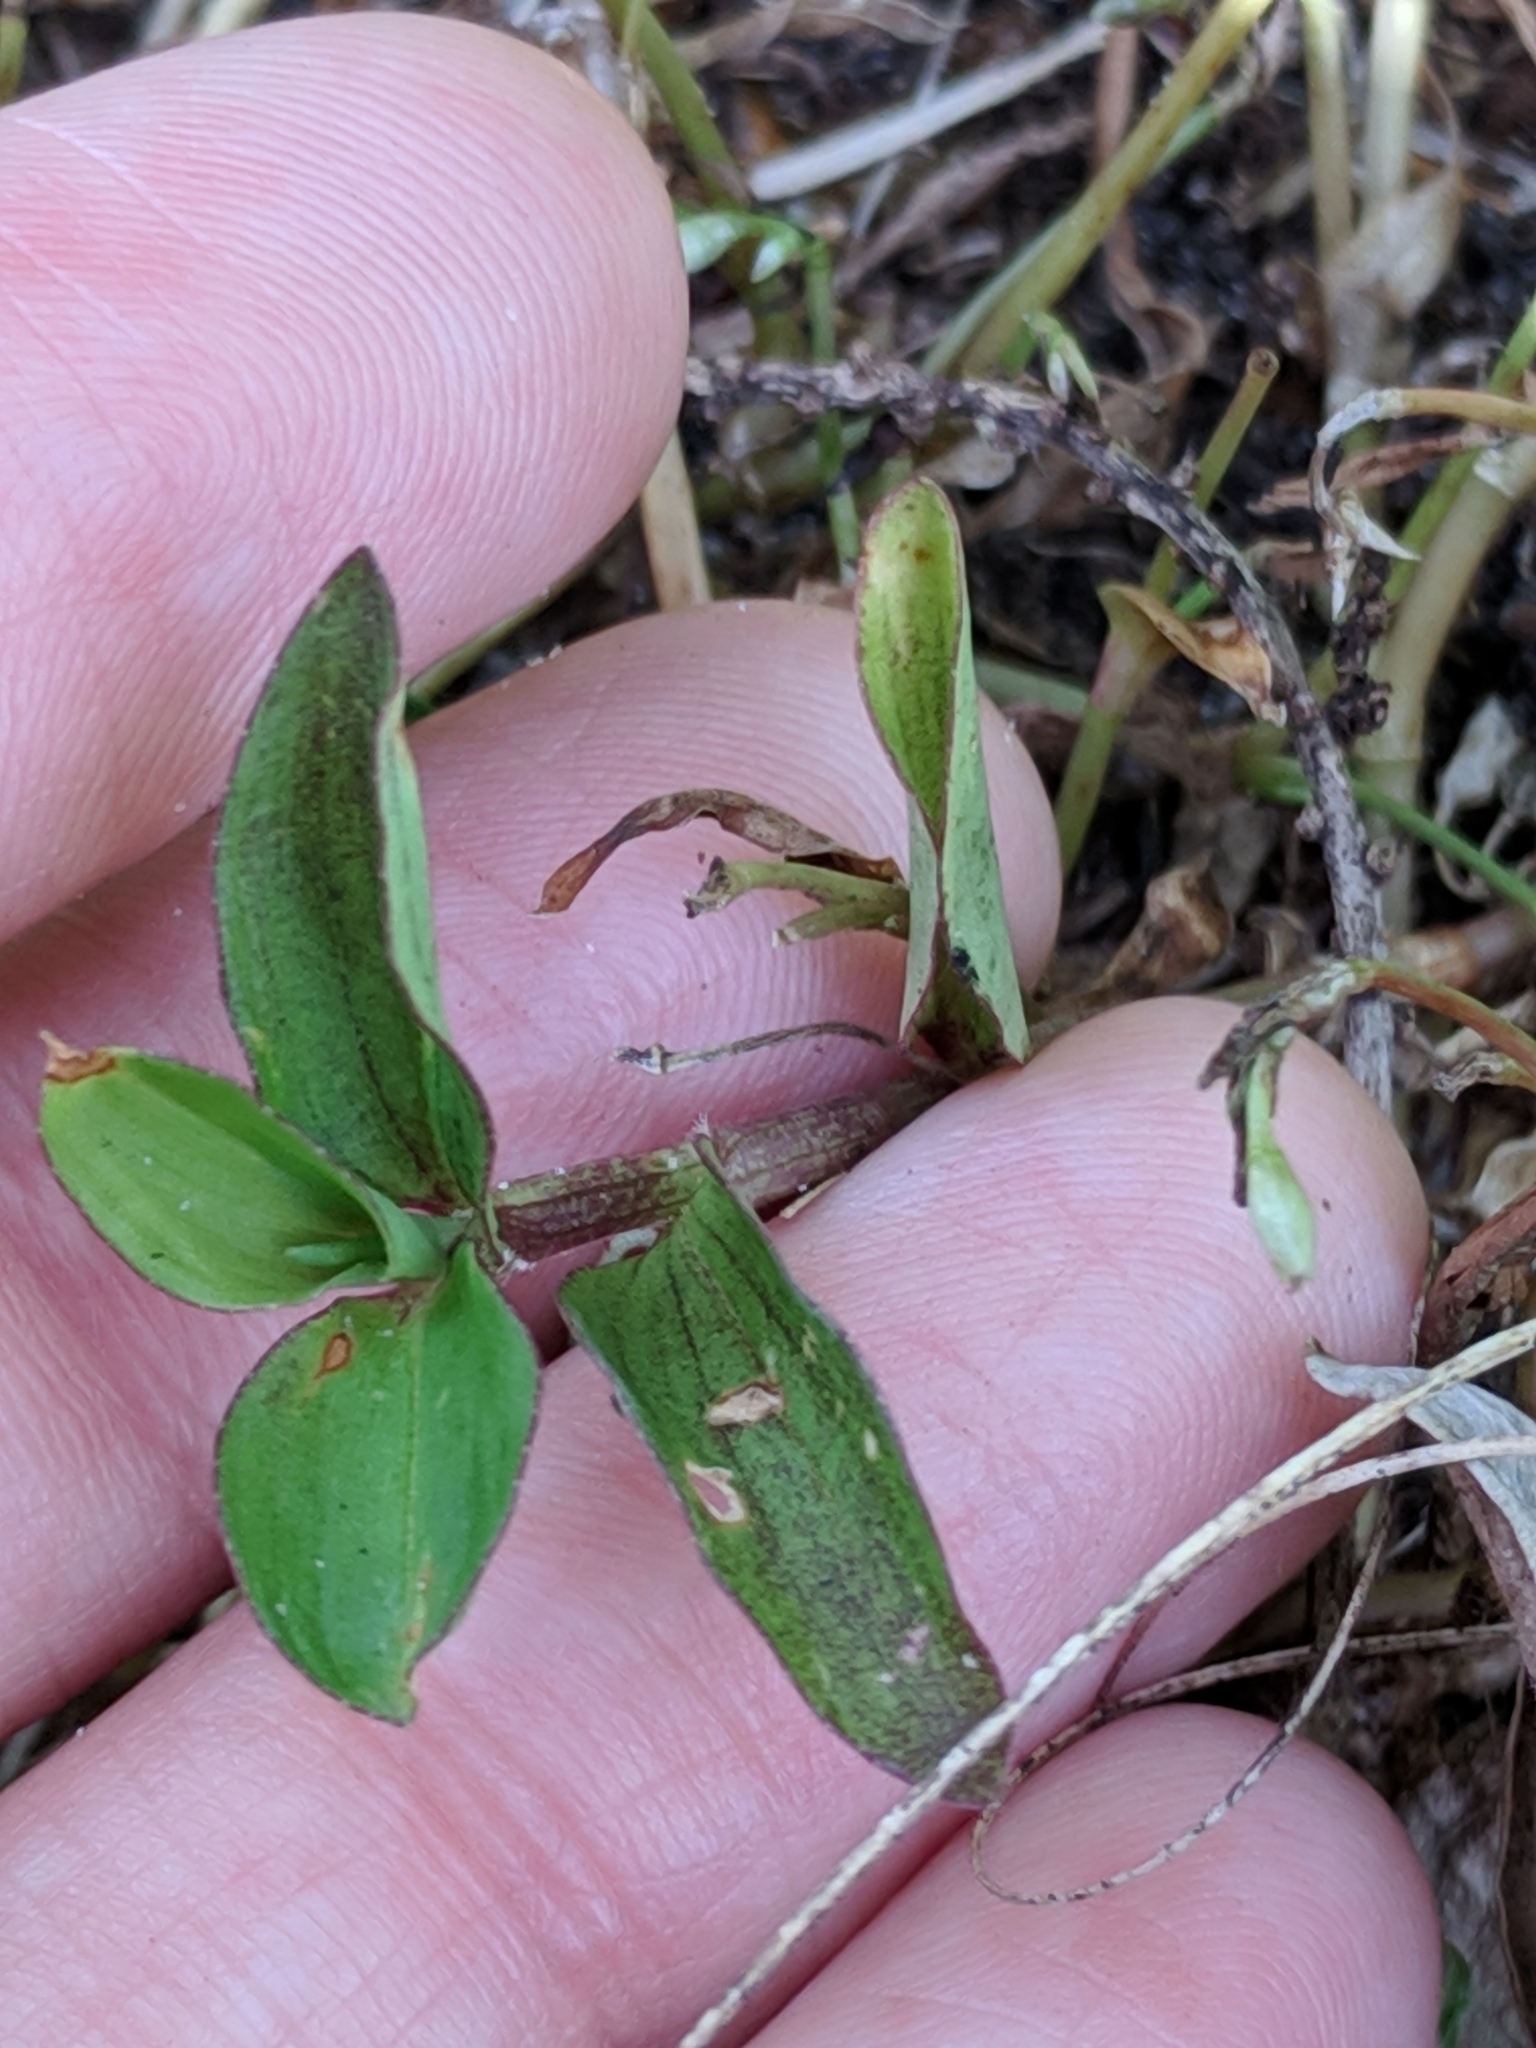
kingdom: Plantae
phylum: Tracheophyta
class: Liliopsida
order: Commelinales
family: Commelinaceae
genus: Murdannia
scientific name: Murdannia nudiflora
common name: Nakedstem dewflower
